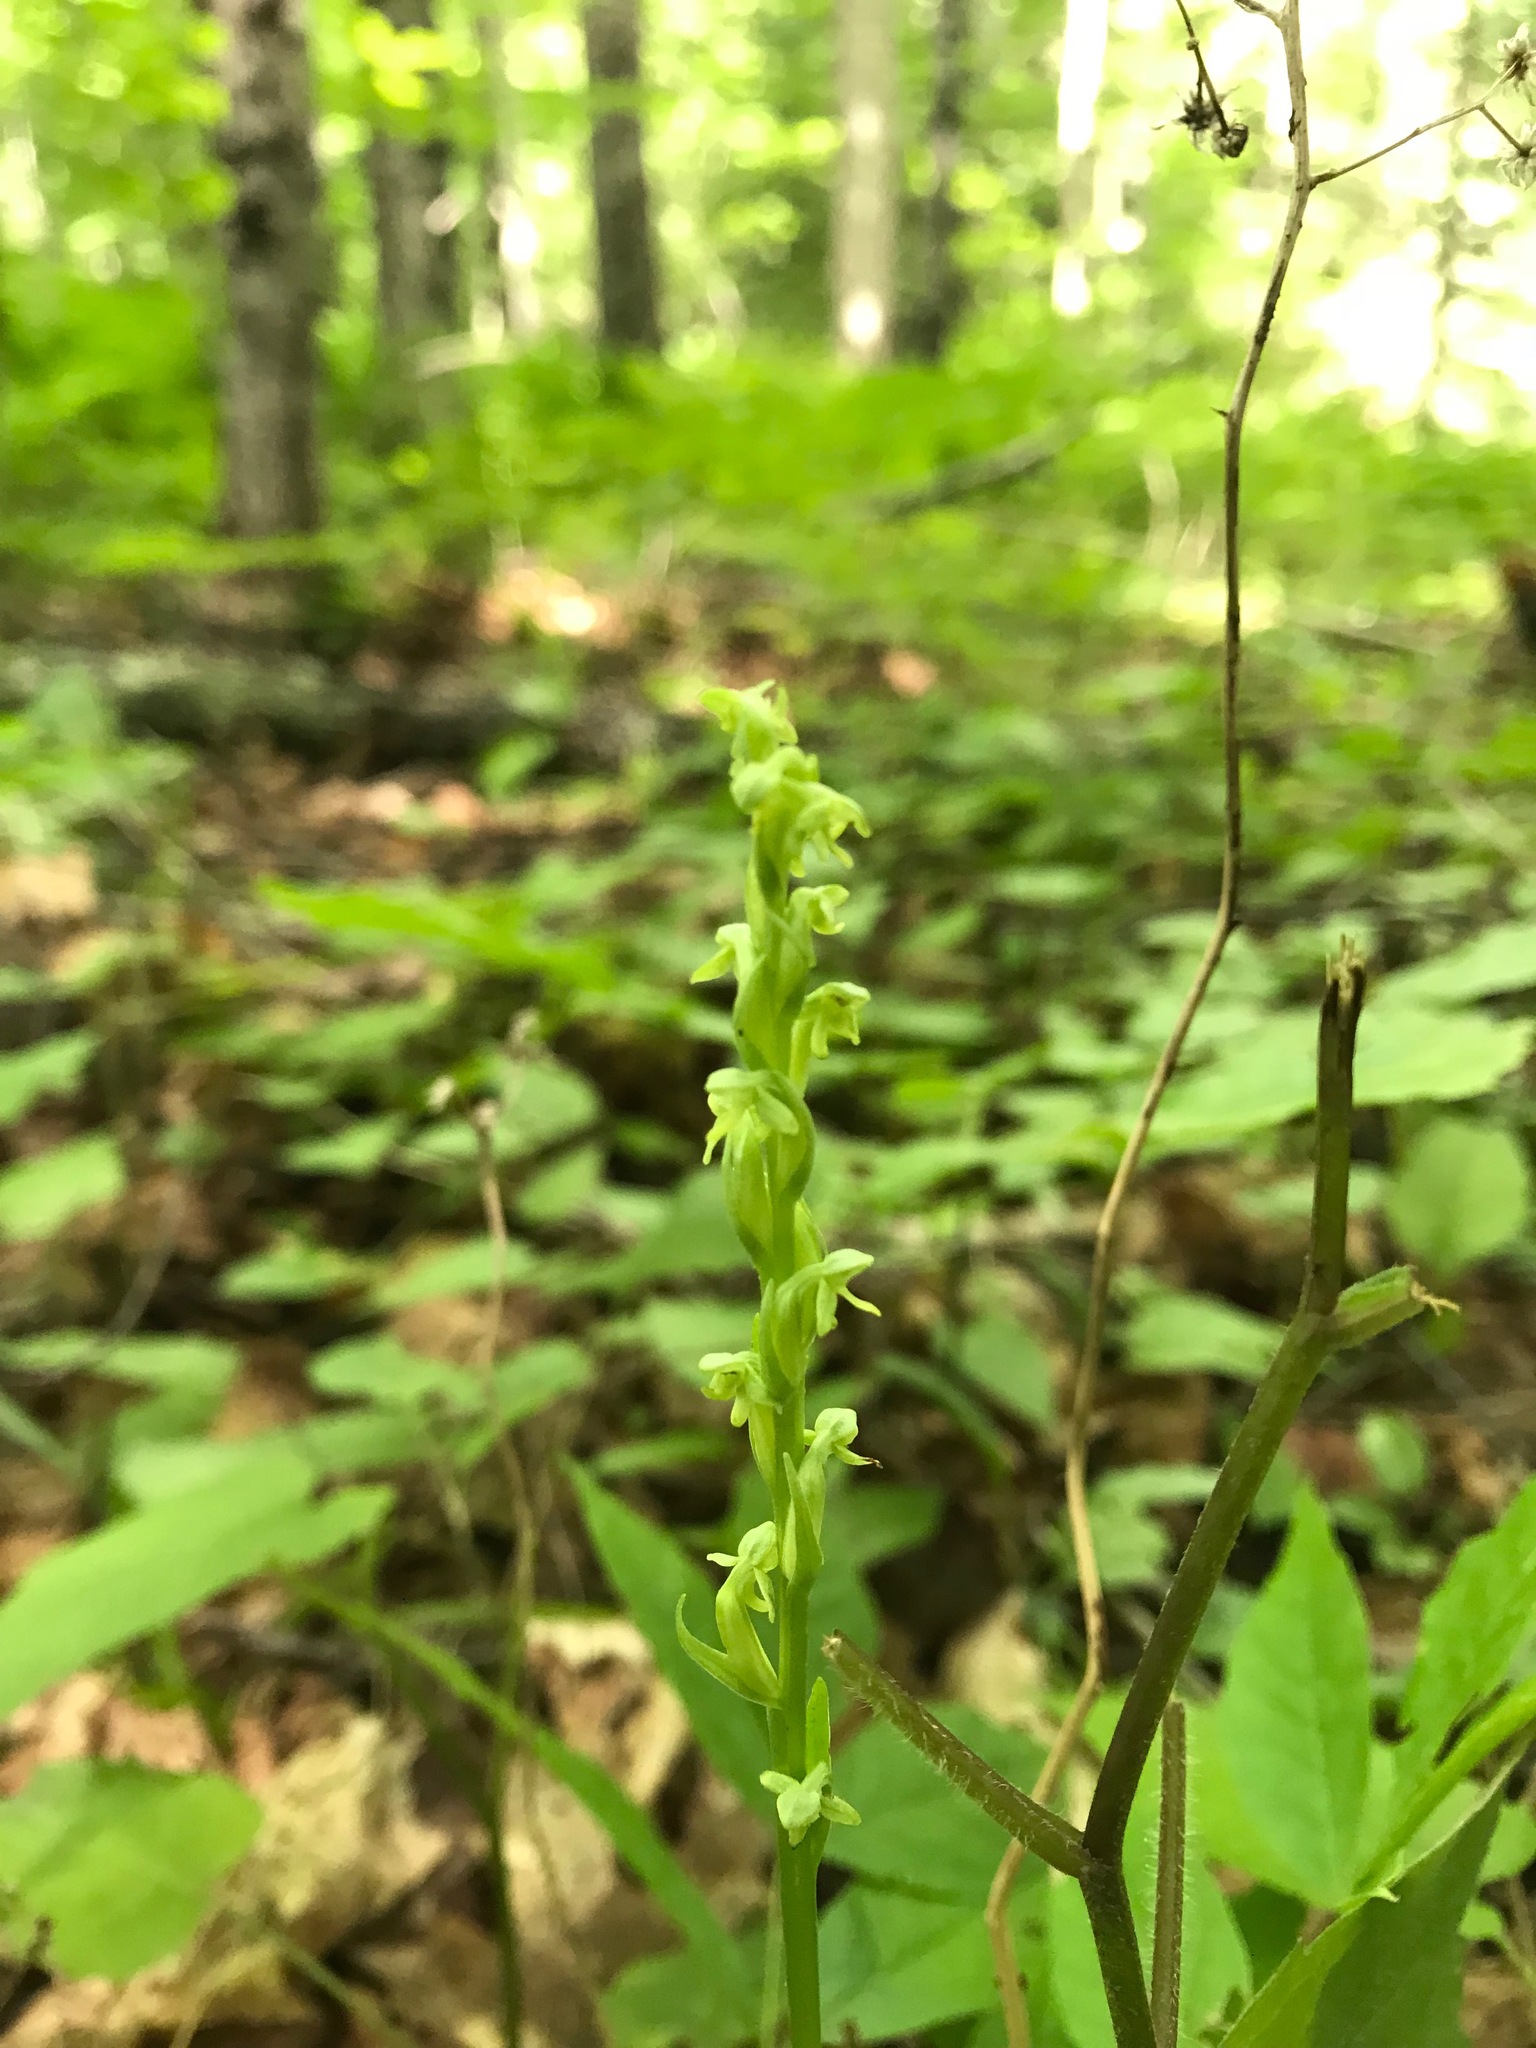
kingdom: Plantae
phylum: Tracheophyta
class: Liliopsida
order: Asparagales
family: Orchidaceae
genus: Platanthera
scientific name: Platanthera aquilonis
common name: Northern green orchid
